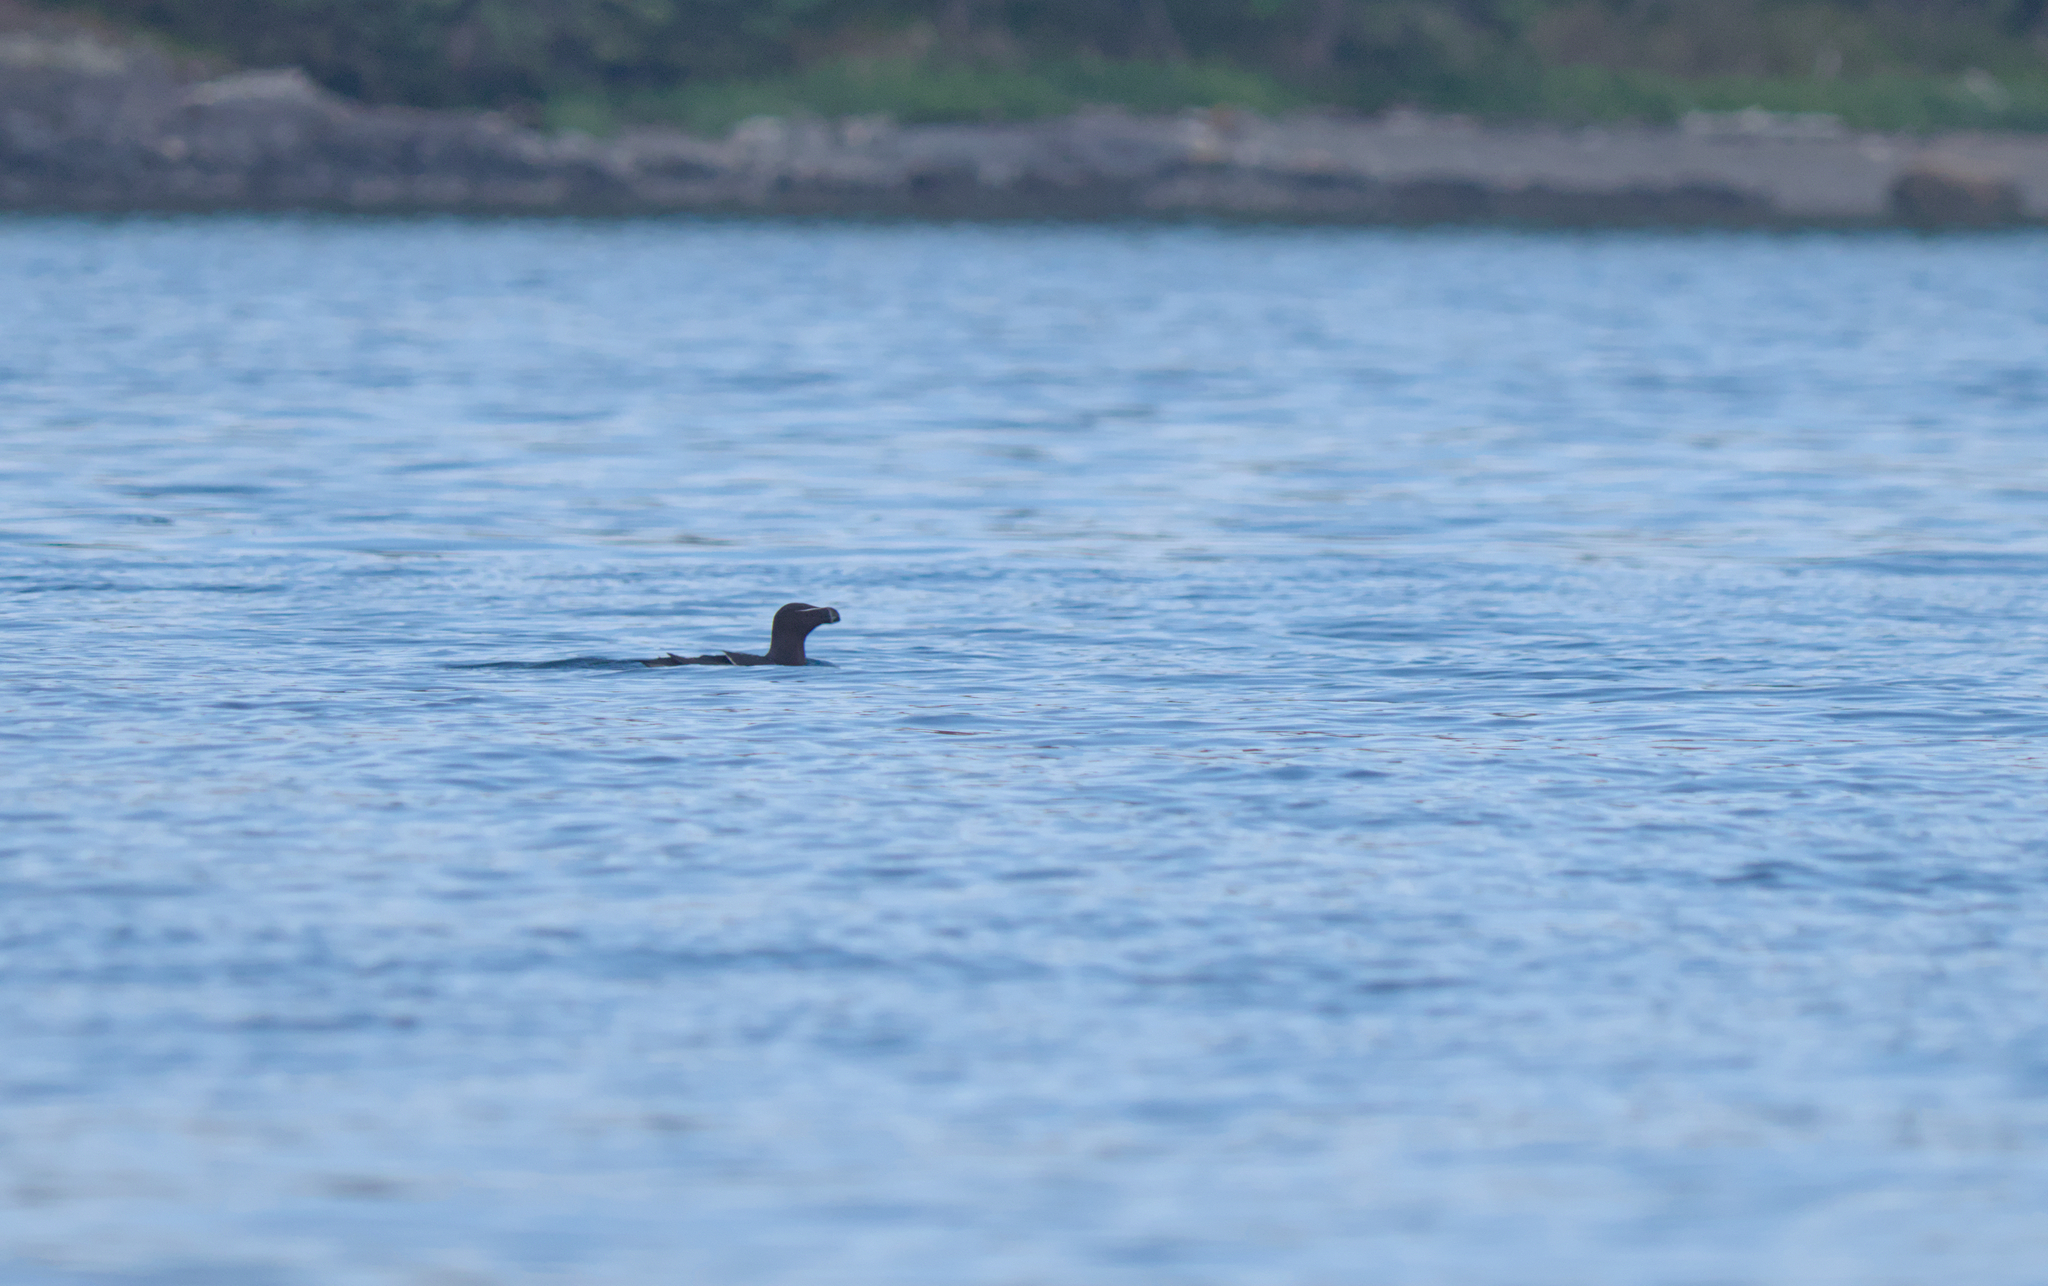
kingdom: Animalia
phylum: Chordata
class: Aves
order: Charadriiformes
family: Alcidae
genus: Alca
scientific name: Alca torda
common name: Razorbill
